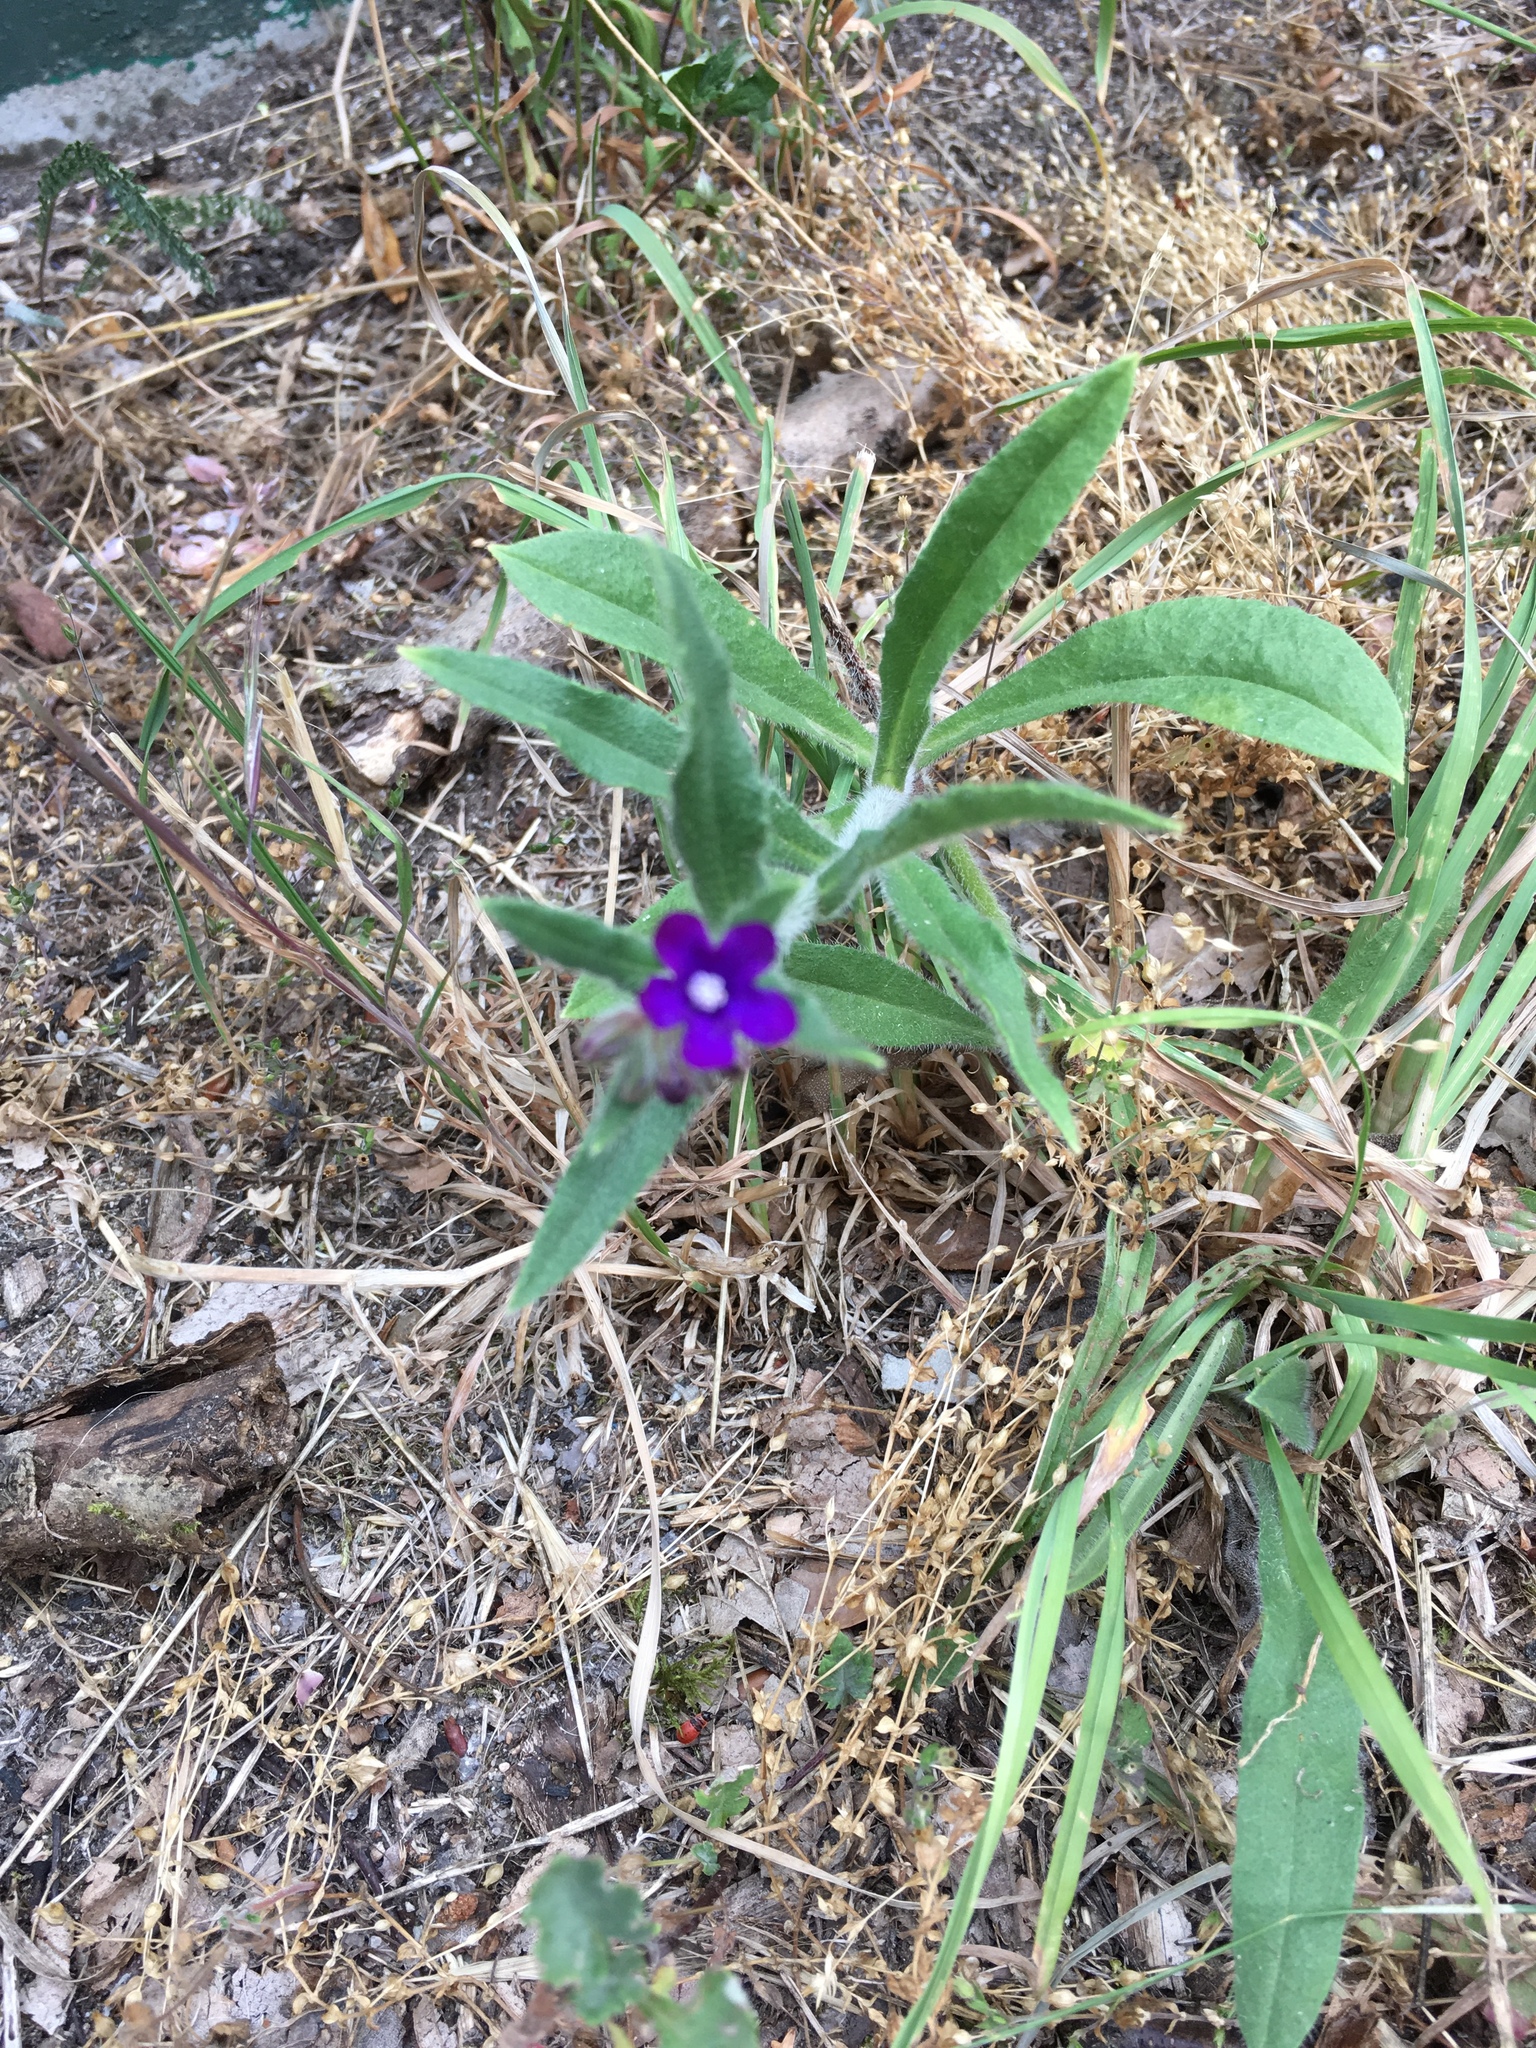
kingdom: Plantae
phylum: Tracheophyta
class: Magnoliopsida
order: Boraginales
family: Boraginaceae
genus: Anchusa
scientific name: Anchusa officinalis
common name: Alkanet
